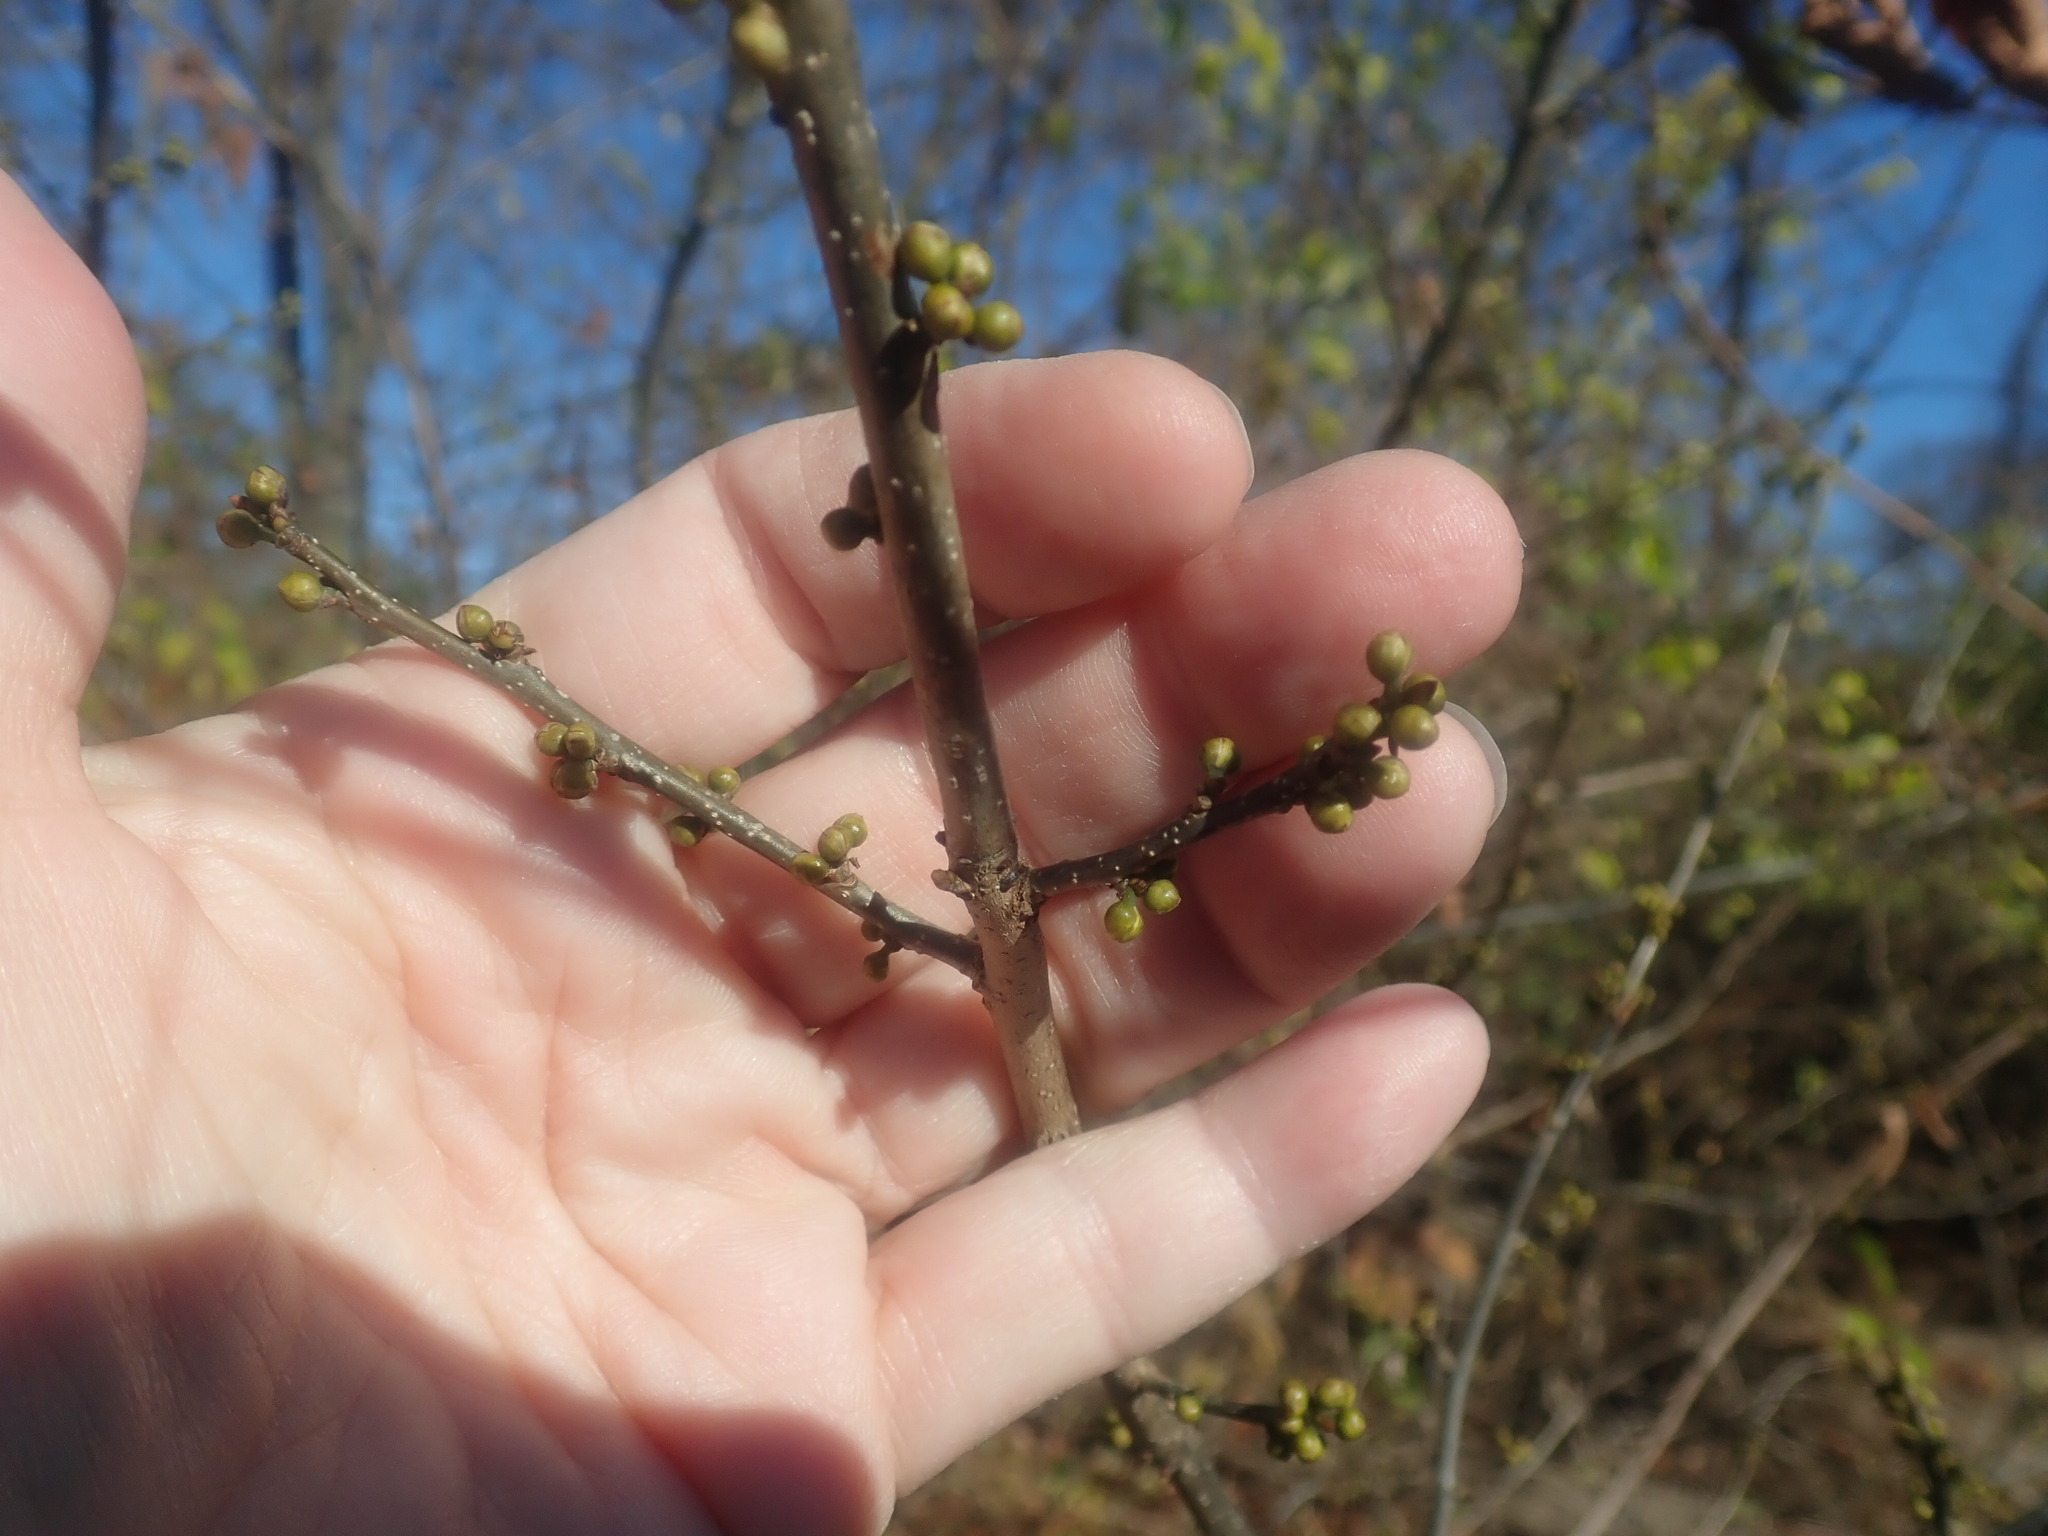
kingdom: Plantae
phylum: Tracheophyta
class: Magnoliopsida
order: Laurales
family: Lauraceae
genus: Lindera
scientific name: Lindera benzoin
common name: Spicebush
